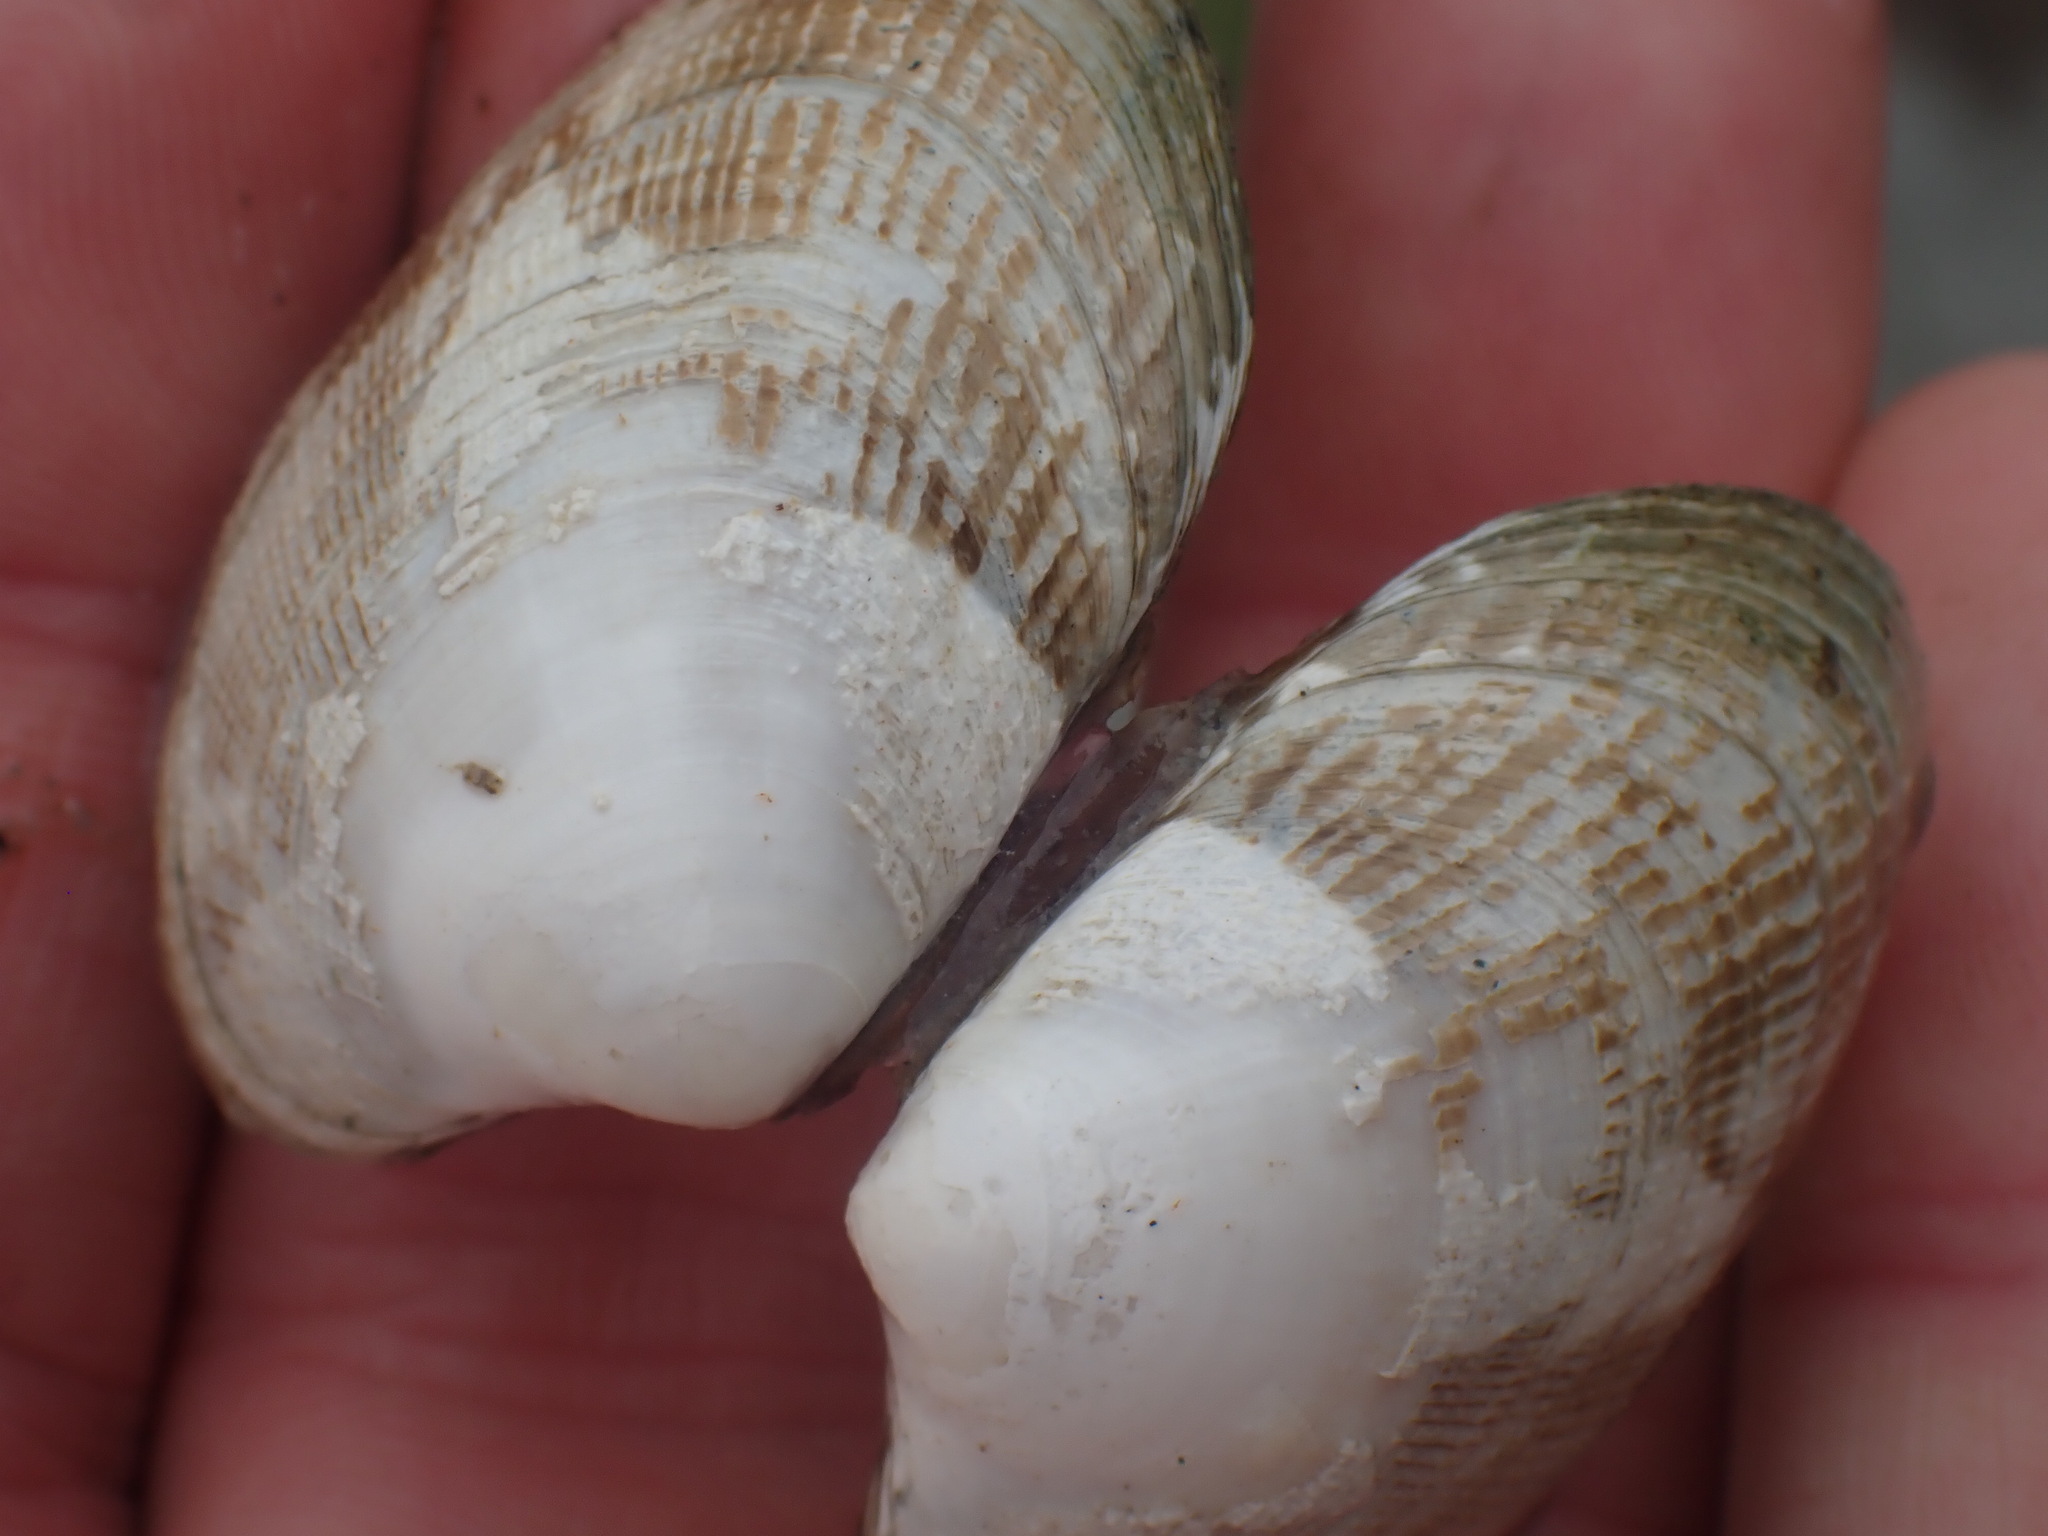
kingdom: Animalia
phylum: Mollusca
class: Bivalvia
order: Venerida
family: Veneridae
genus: Ruditapes
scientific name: Ruditapes philippinarum
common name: Manila clam
